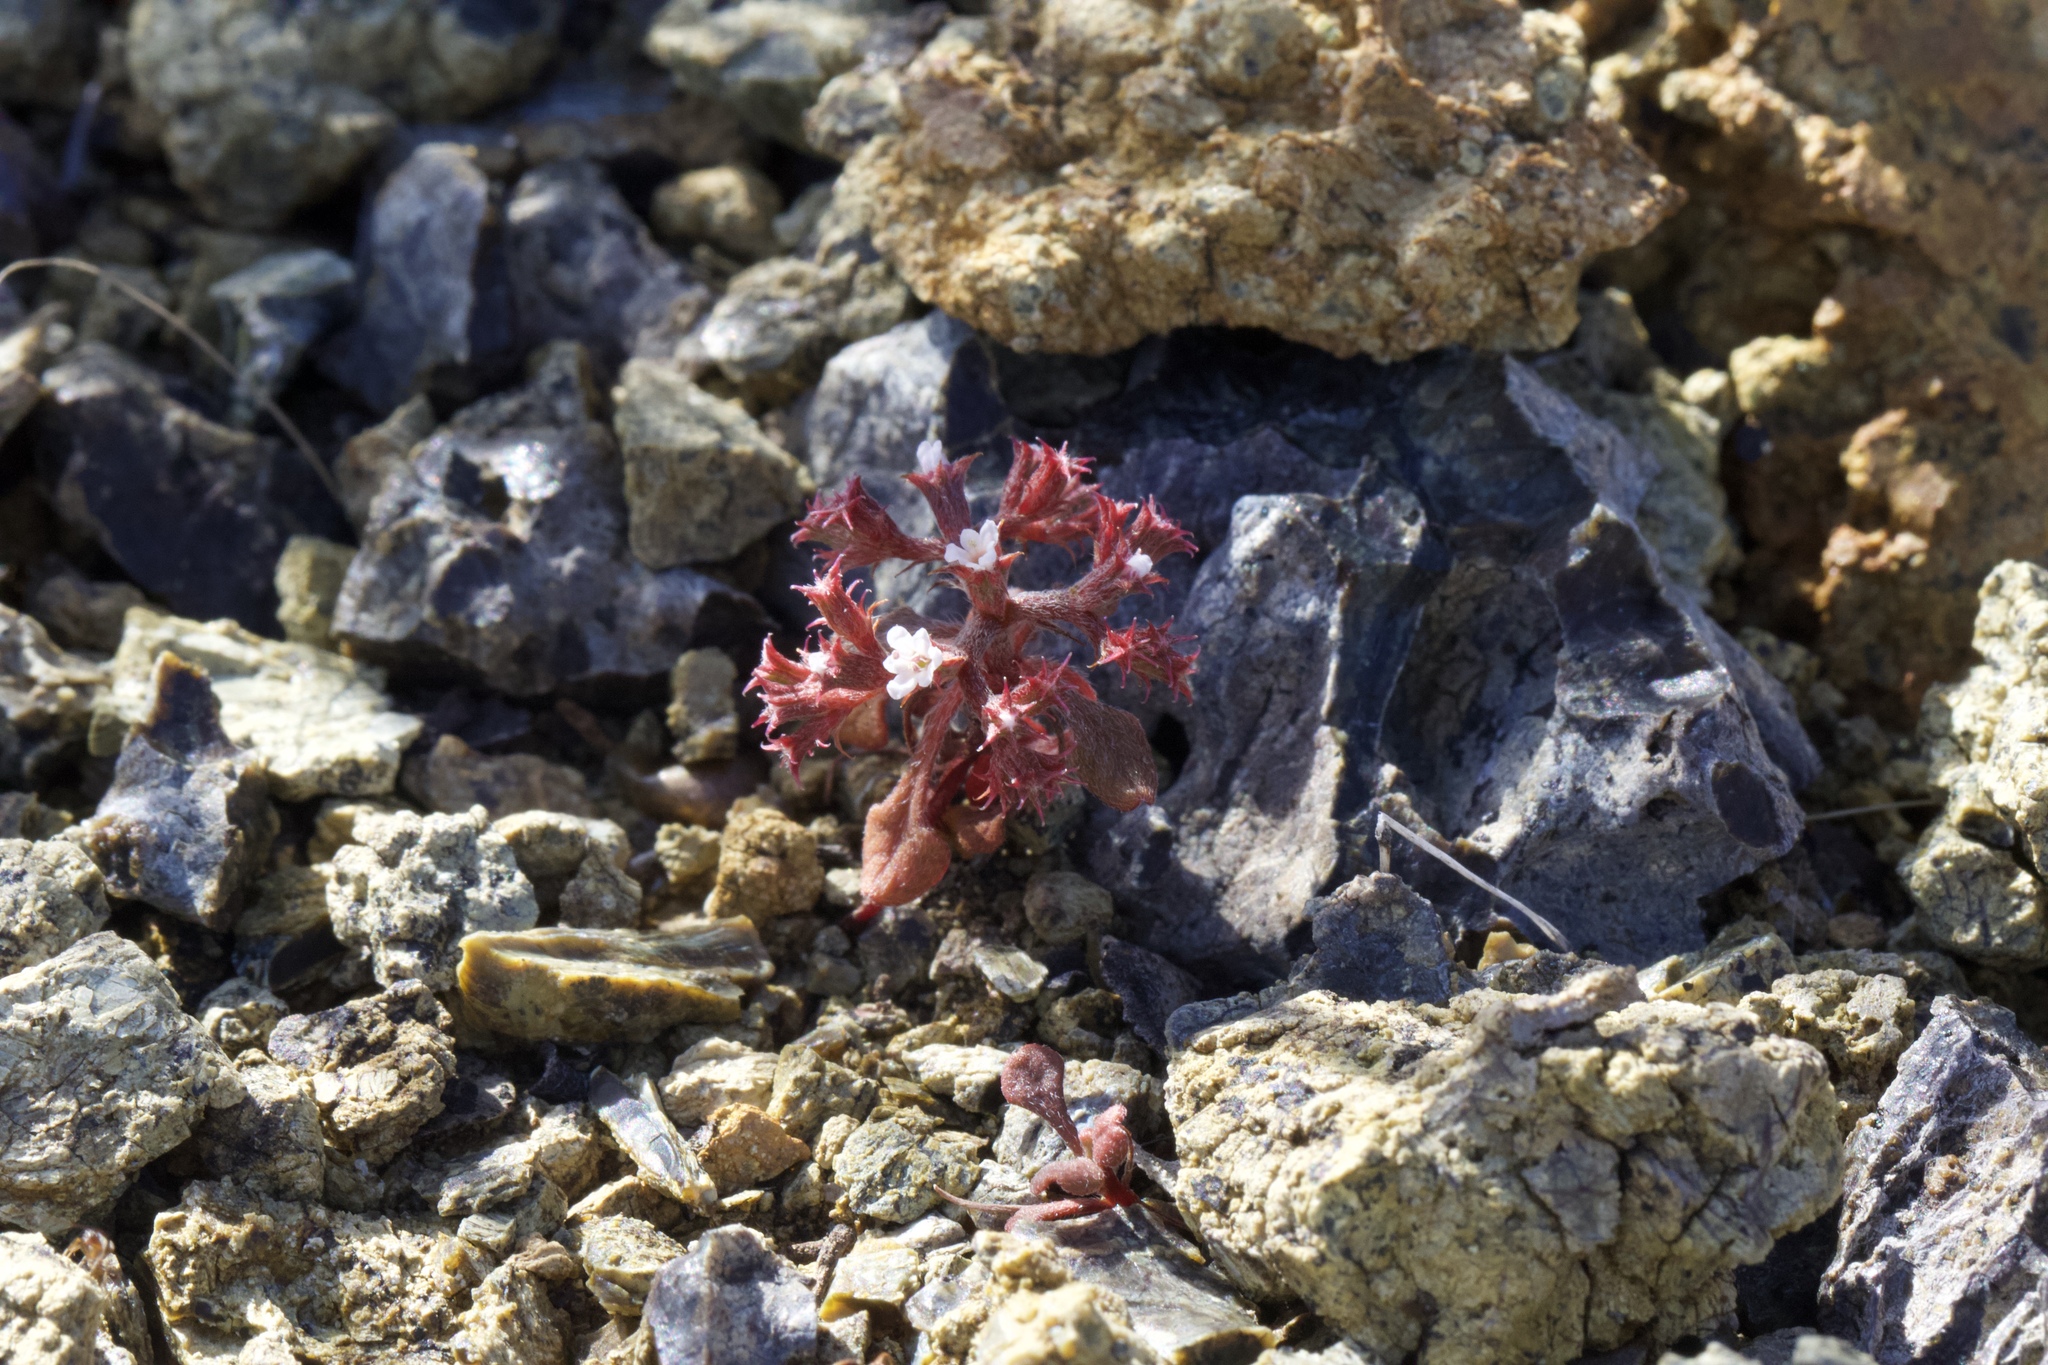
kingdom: Plantae
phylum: Tracheophyta
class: Magnoliopsida
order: Caryophyllales
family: Polygonaceae
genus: Chorizanthe
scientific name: Chorizanthe breweri
